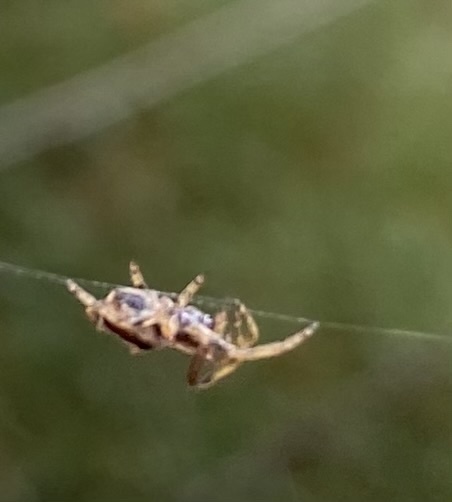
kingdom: Animalia
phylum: Arthropoda
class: Arachnida
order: Araneae
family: Araneidae
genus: Eriophora
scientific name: Eriophora pustulosa
